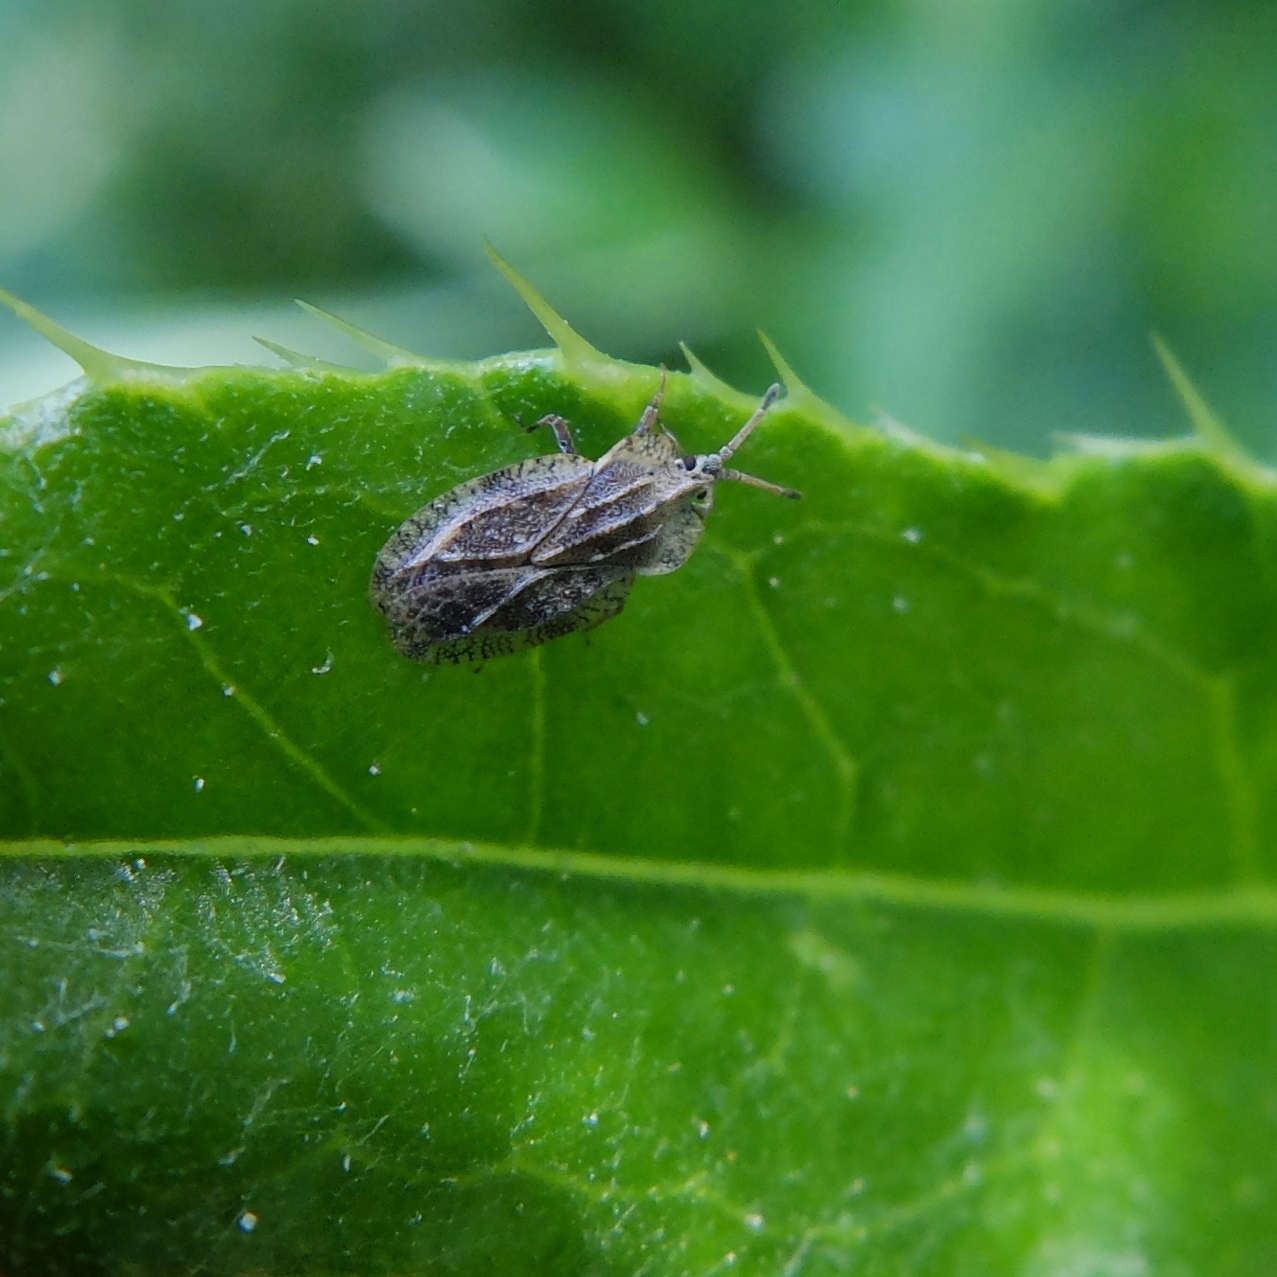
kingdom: Animalia
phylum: Arthropoda
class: Insecta
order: Hemiptera
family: Tingidae
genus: Tingis
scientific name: Tingis ampliata
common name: Creeping thistle lacebug
